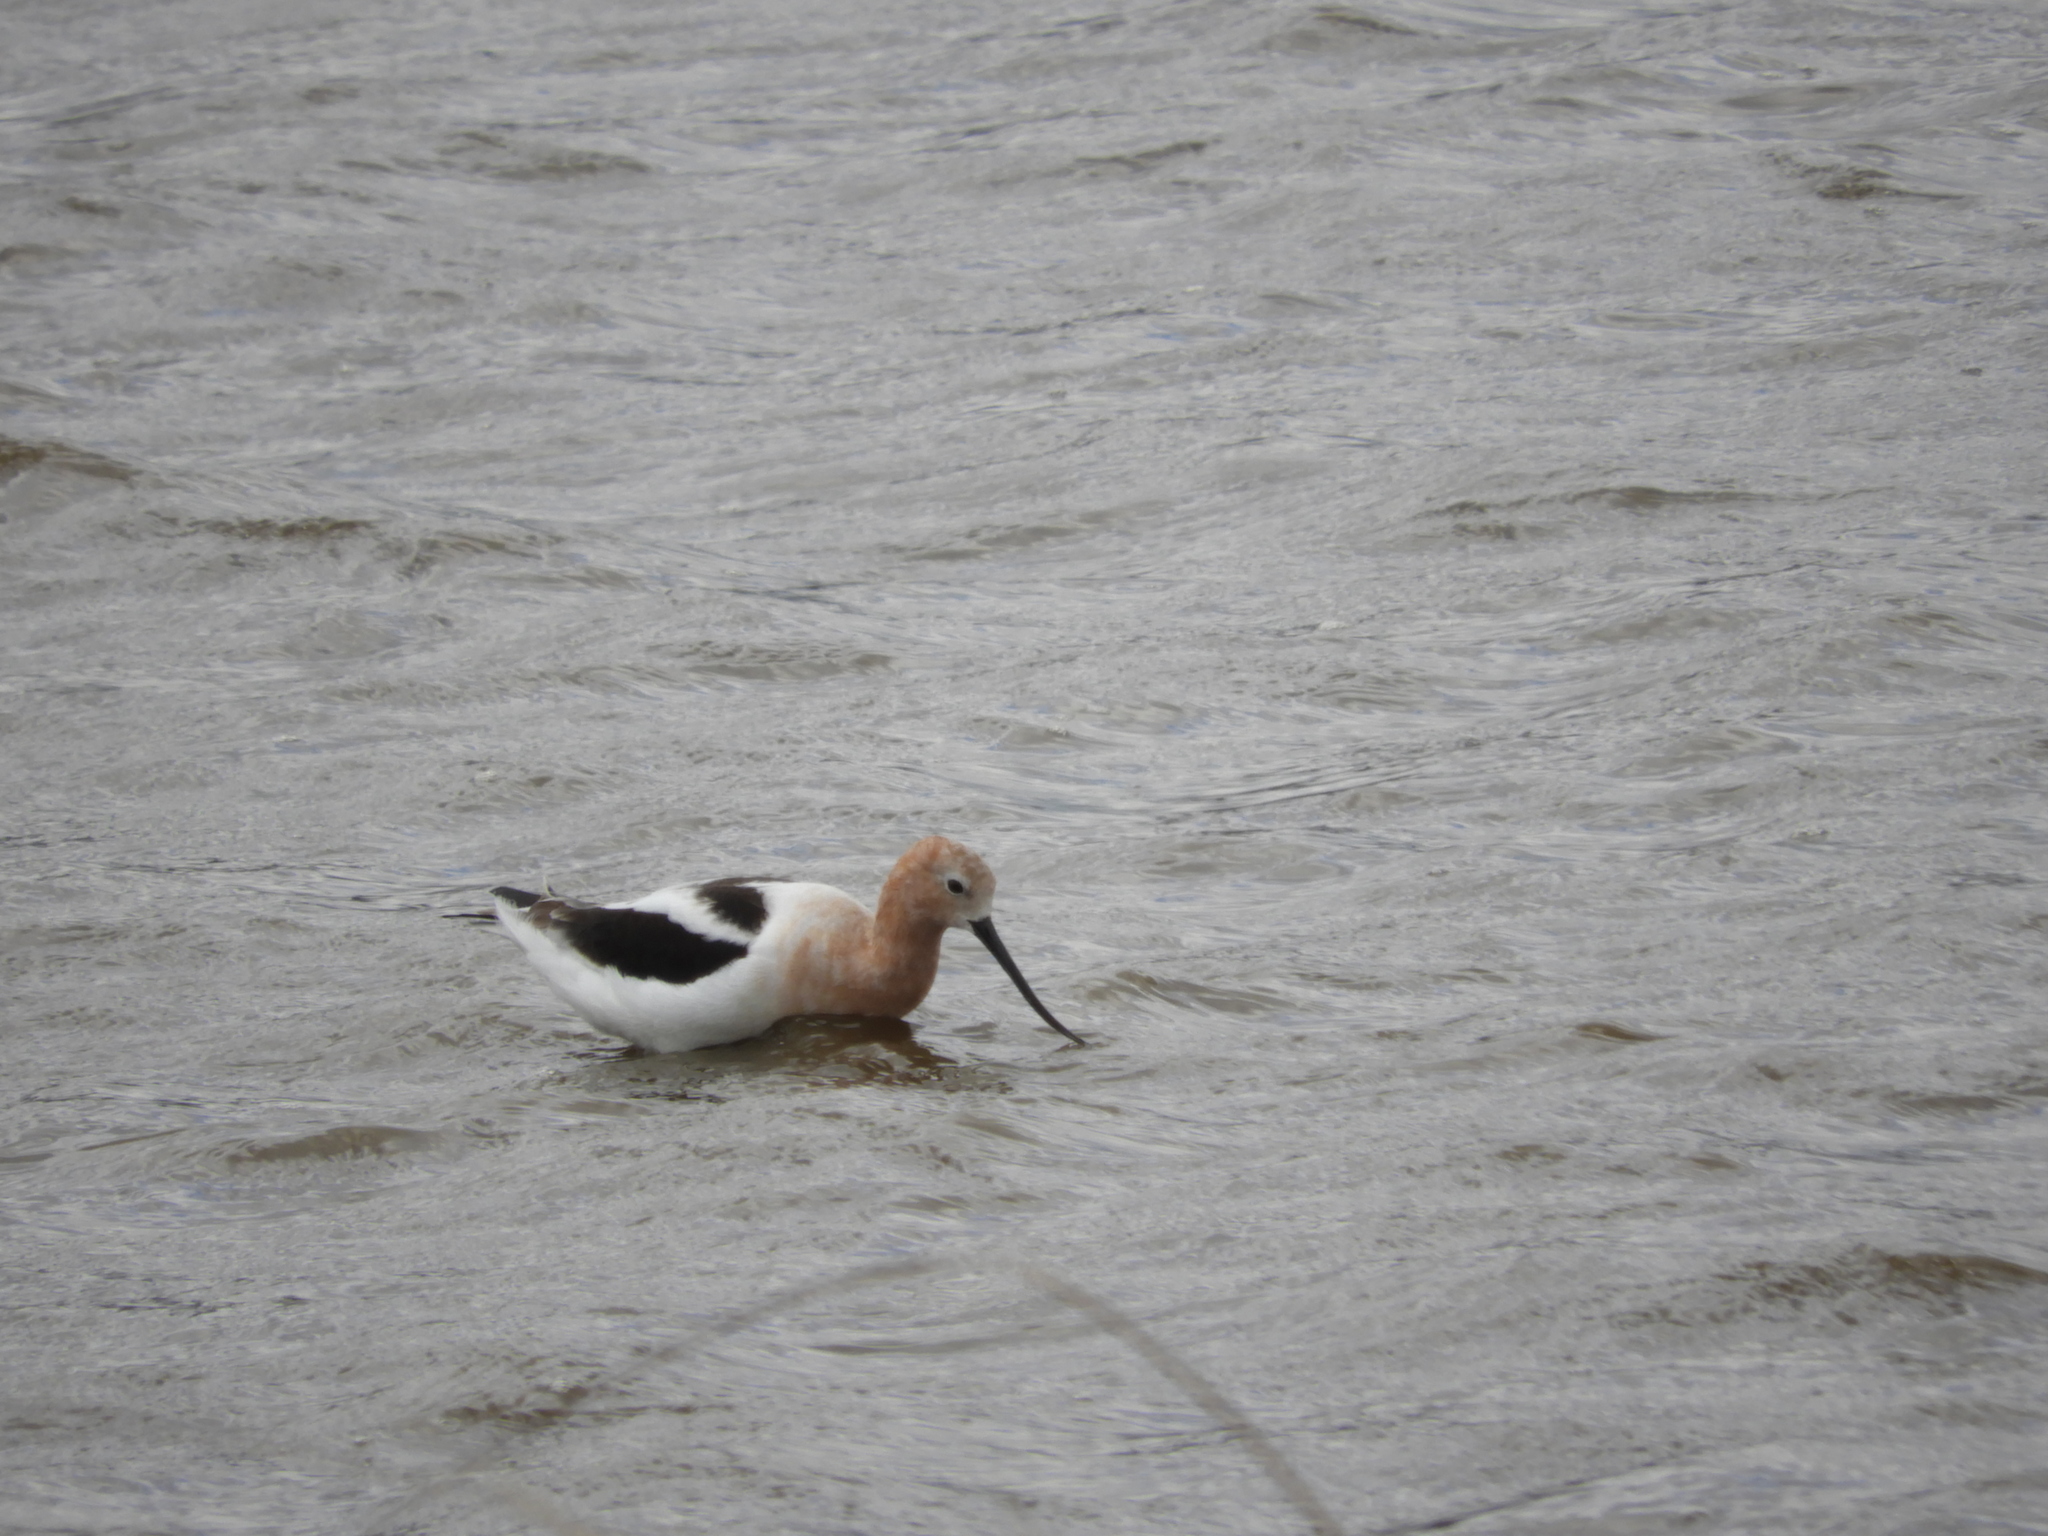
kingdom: Animalia
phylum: Chordata
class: Aves
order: Charadriiformes
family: Recurvirostridae
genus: Recurvirostra
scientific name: Recurvirostra americana
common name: American avocet
